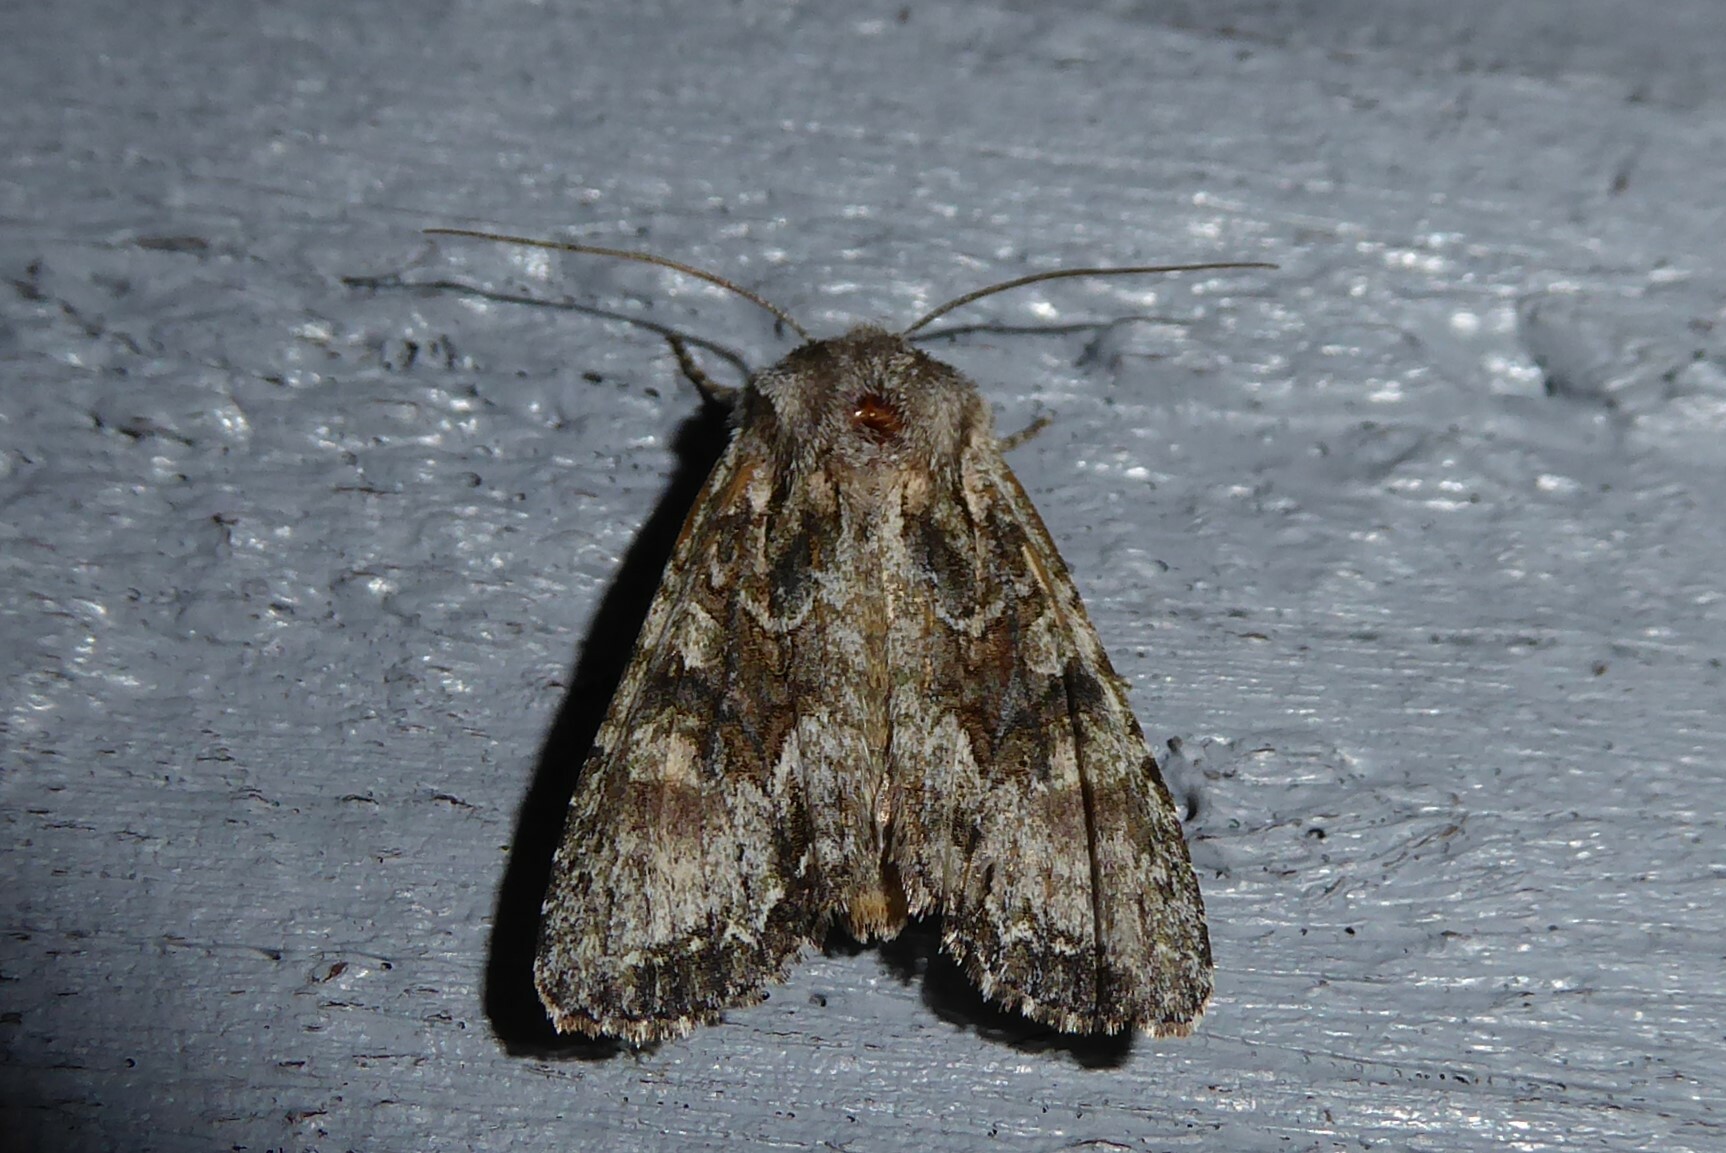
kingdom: Animalia
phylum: Arthropoda
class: Insecta
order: Lepidoptera
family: Noctuidae
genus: Ichneutica
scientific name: Ichneutica mutans
